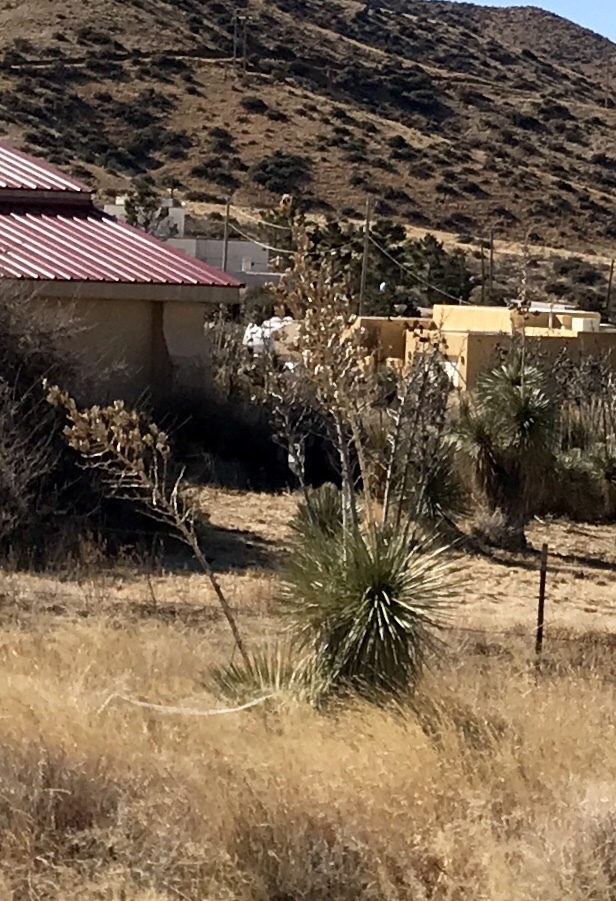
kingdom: Plantae
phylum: Tracheophyta
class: Liliopsida
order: Asparagales
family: Asparagaceae
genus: Yucca
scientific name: Yucca elata
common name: Palmella
